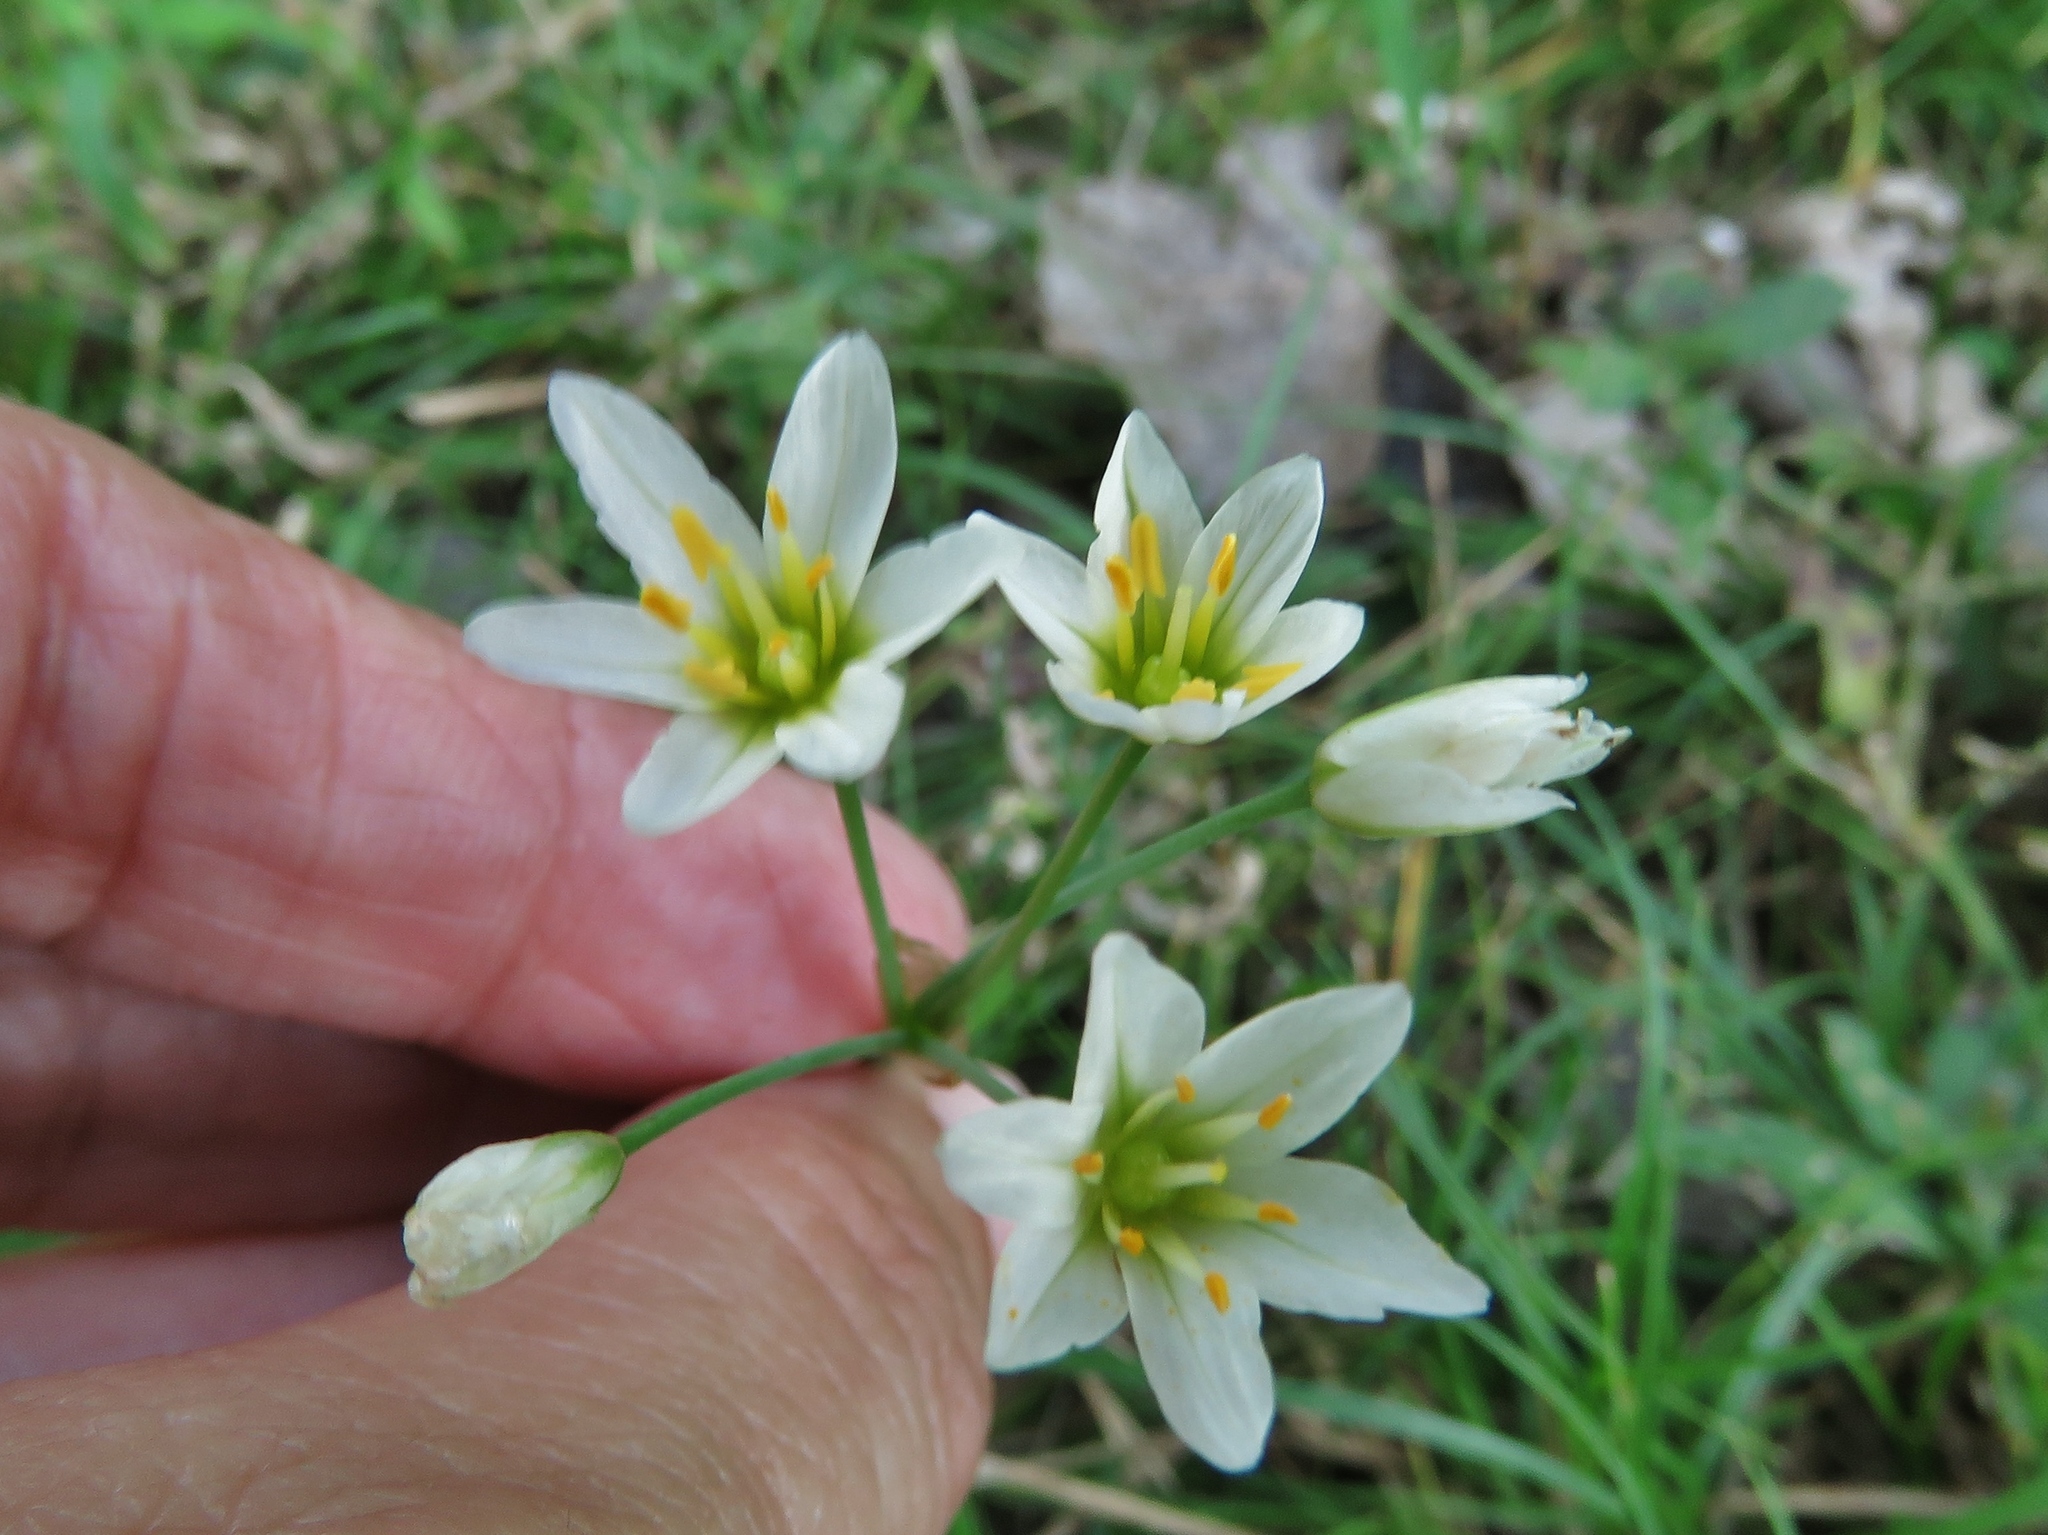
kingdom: Plantae
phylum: Tracheophyta
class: Liliopsida
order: Asparagales
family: Amaryllidaceae
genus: Nothoscordum
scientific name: Nothoscordum bivalve
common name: Crow-poison
